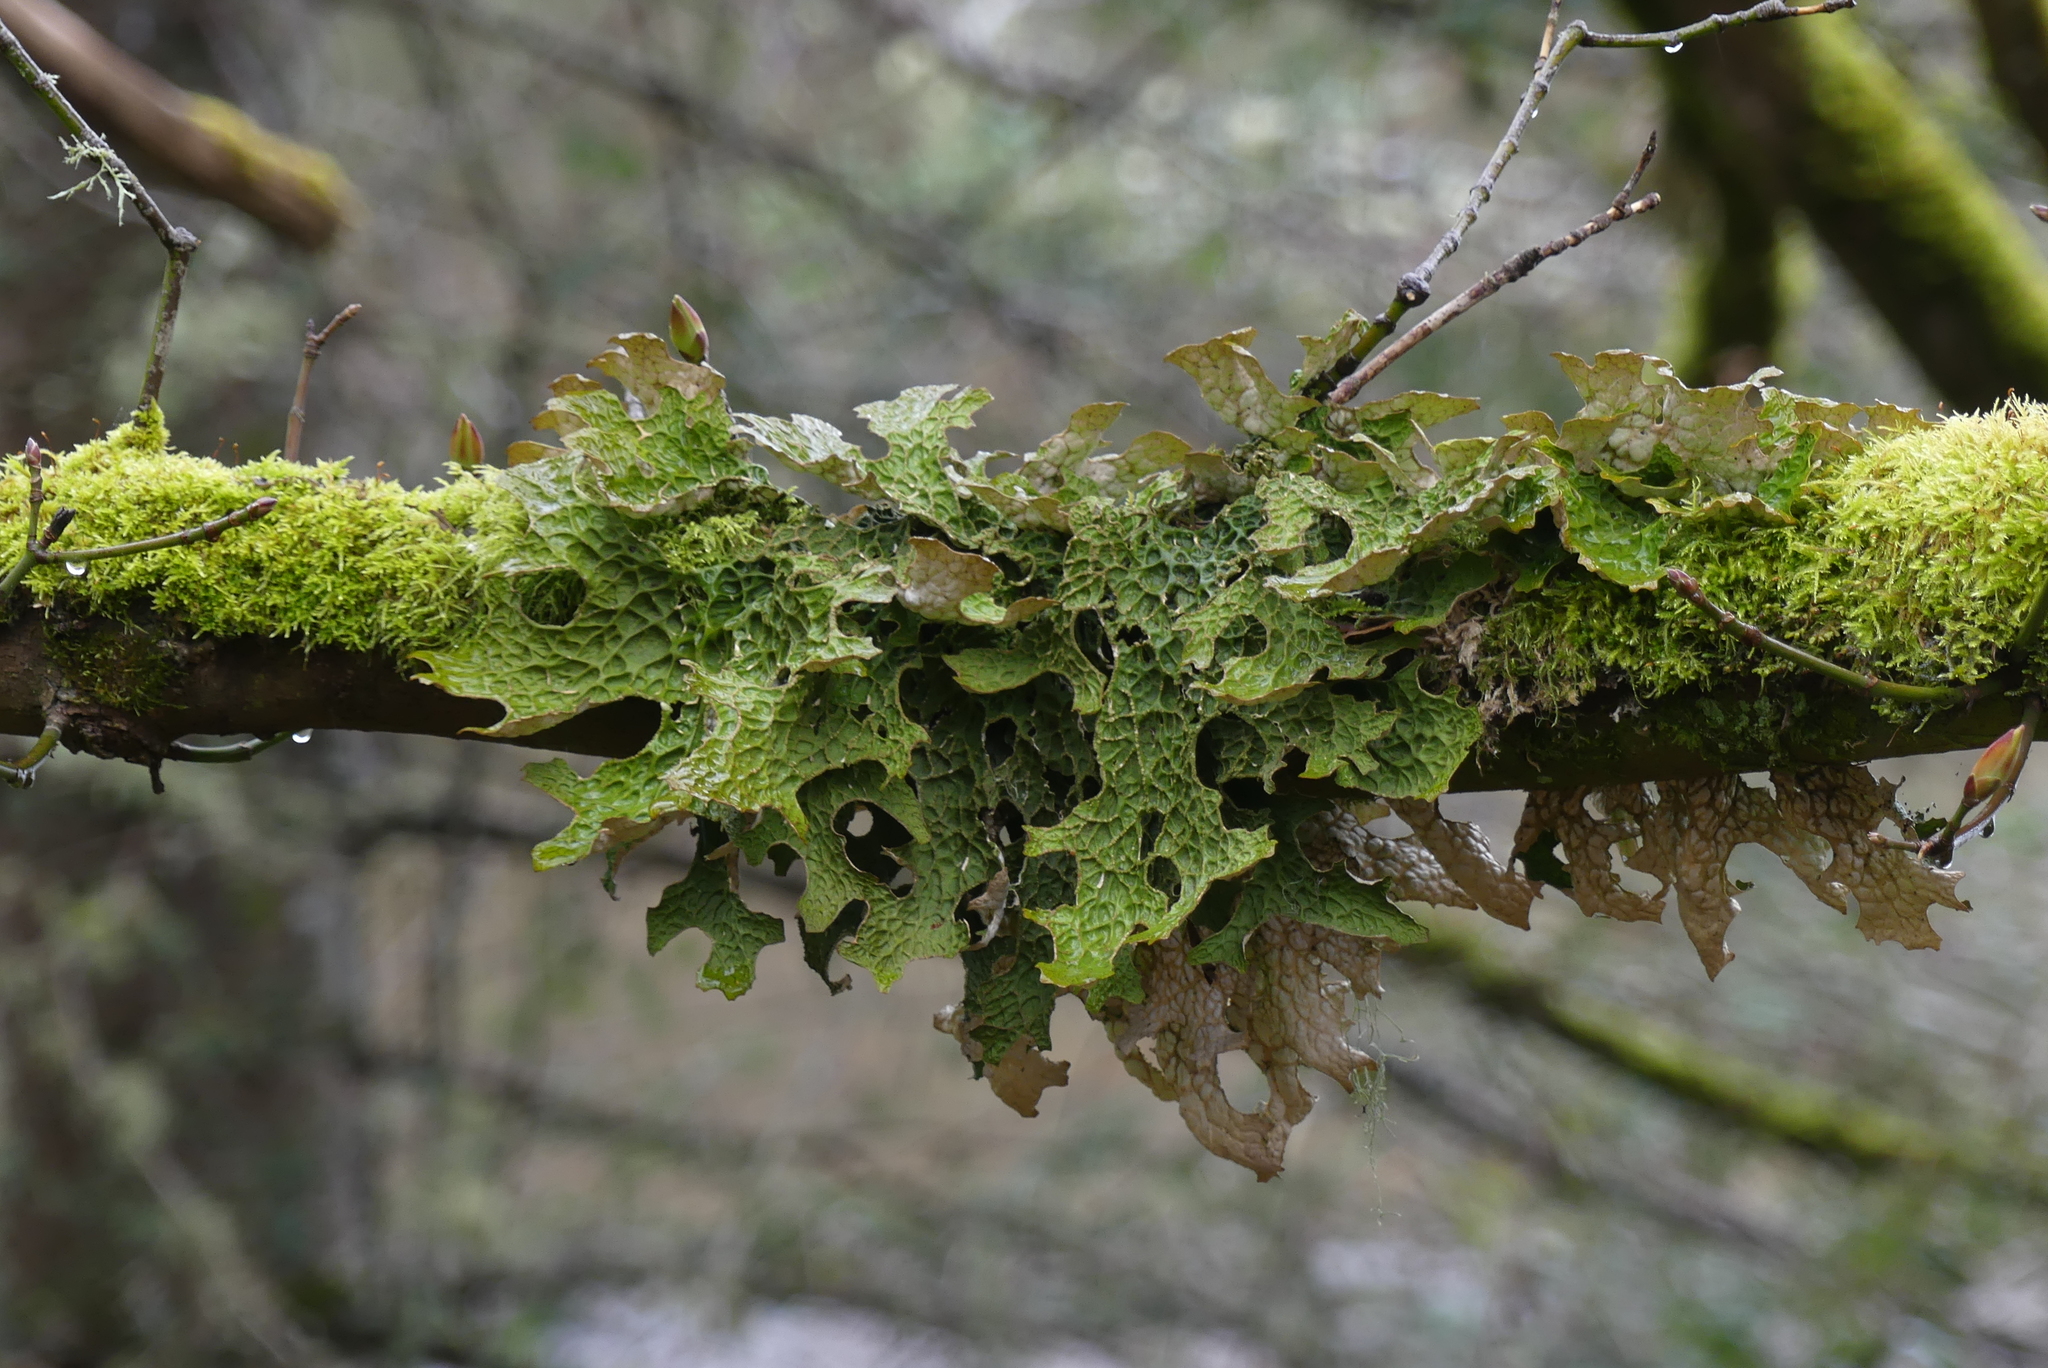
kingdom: Fungi
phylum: Ascomycota
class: Lecanoromycetes
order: Peltigerales
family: Lobariaceae
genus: Lobaria
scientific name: Lobaria pulmonaria
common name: Lungwort
